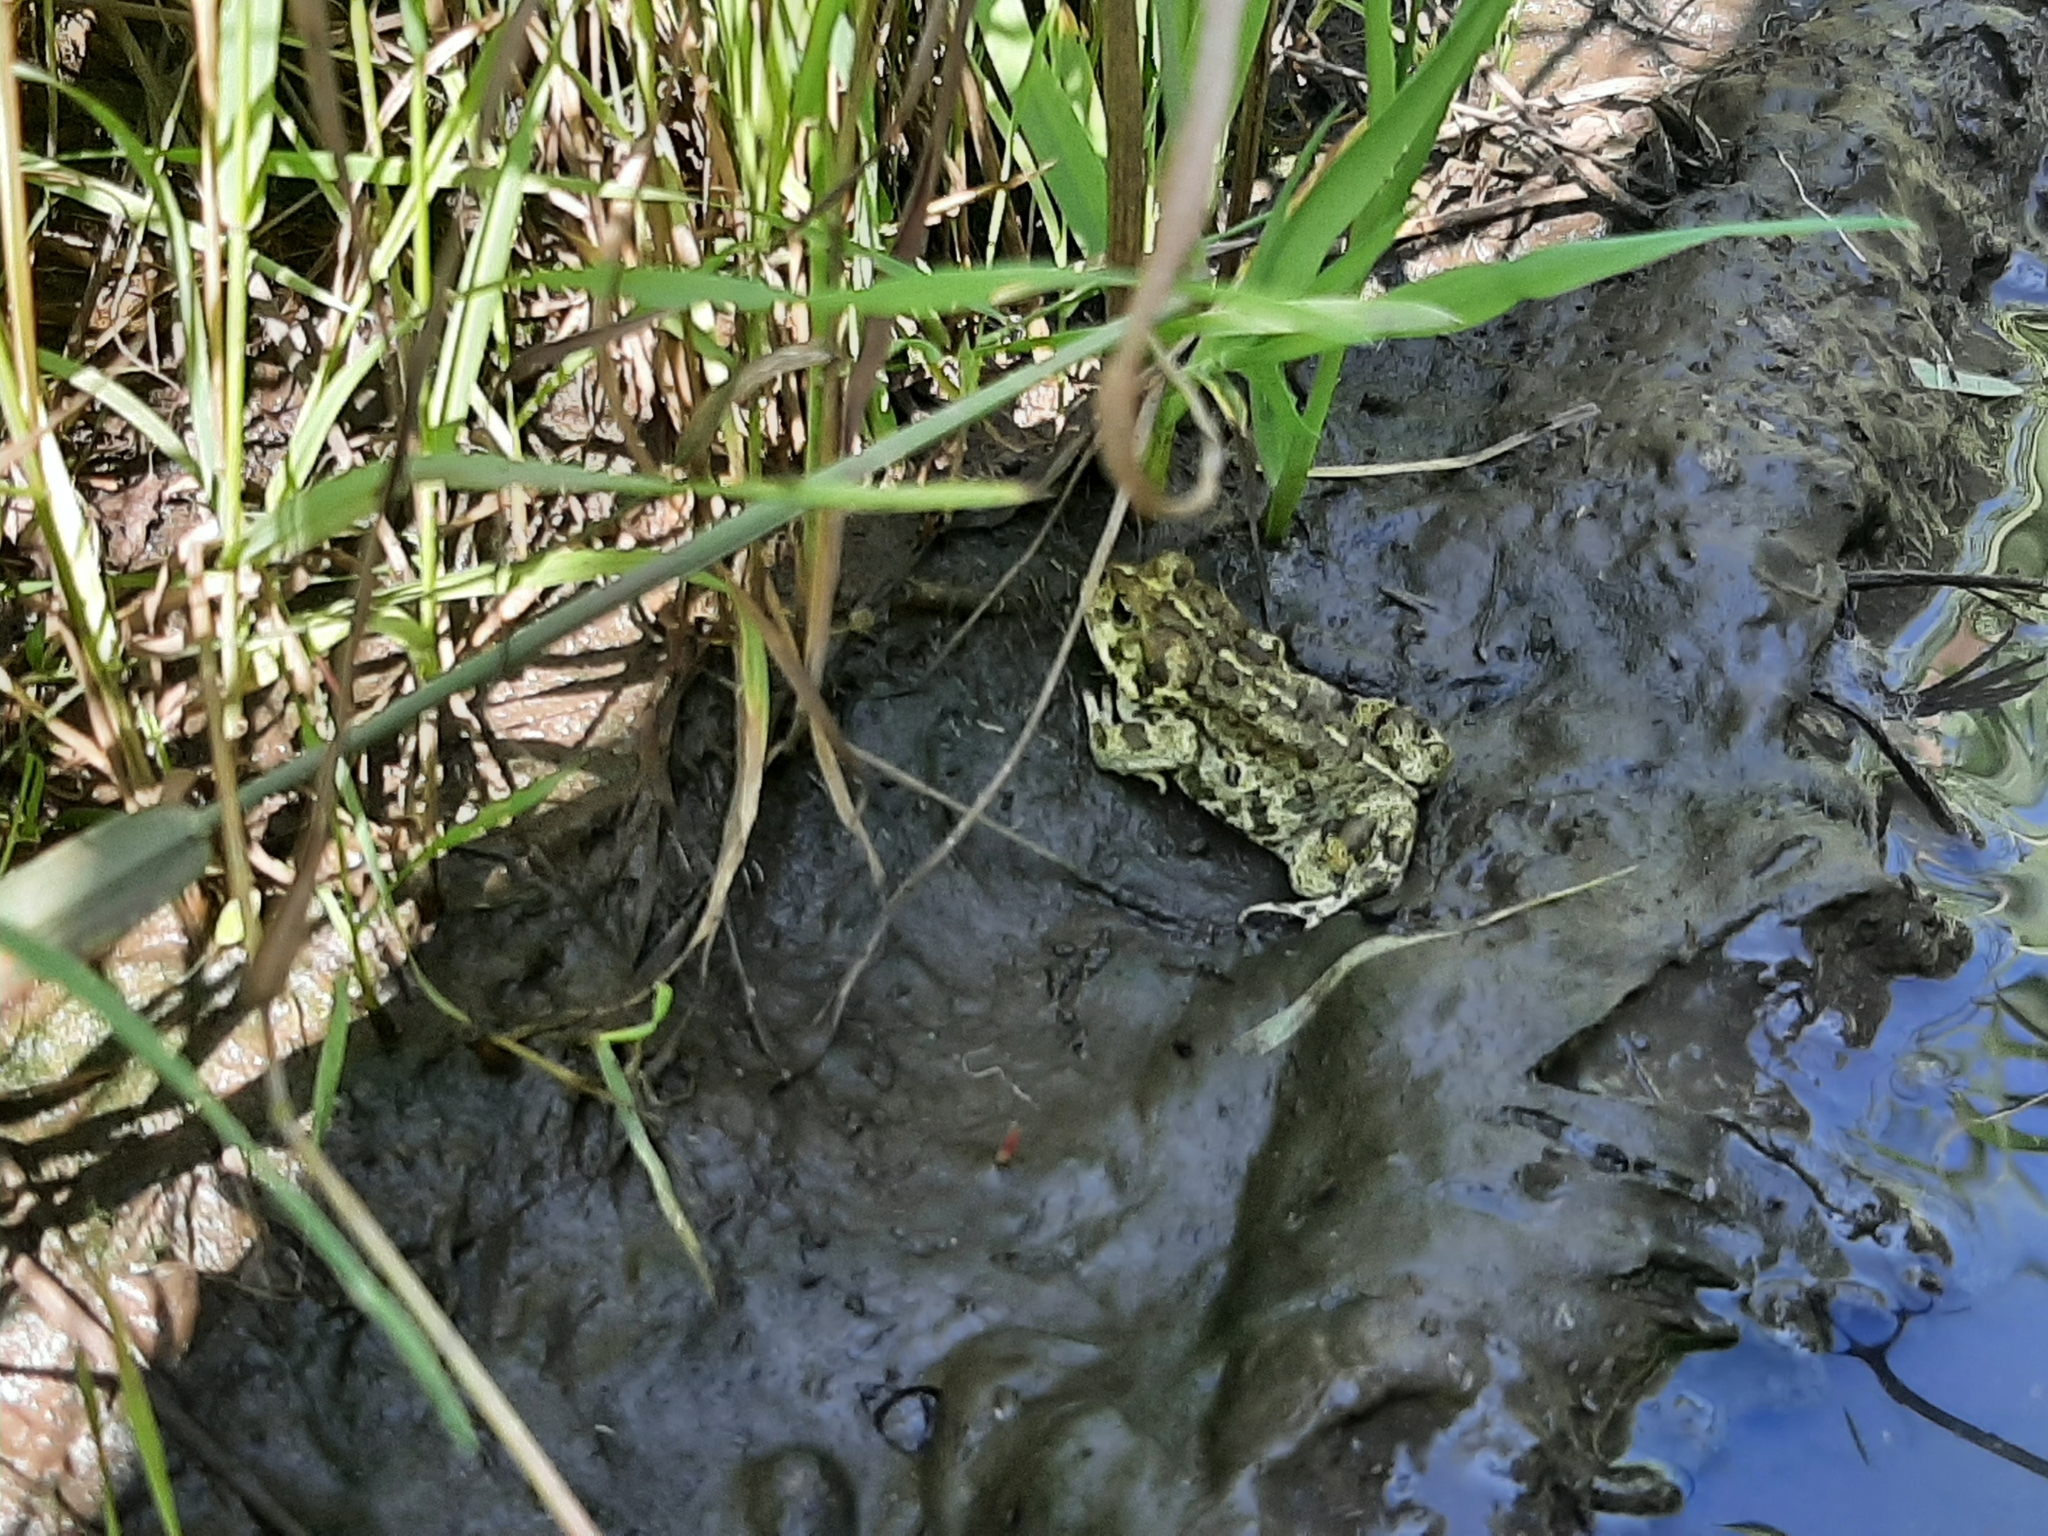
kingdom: Animalia
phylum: Chordata
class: Amphibia
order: Anura
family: Bufonidae
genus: Anaxyrus
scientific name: Anaxyrus boreas
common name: Western toad
